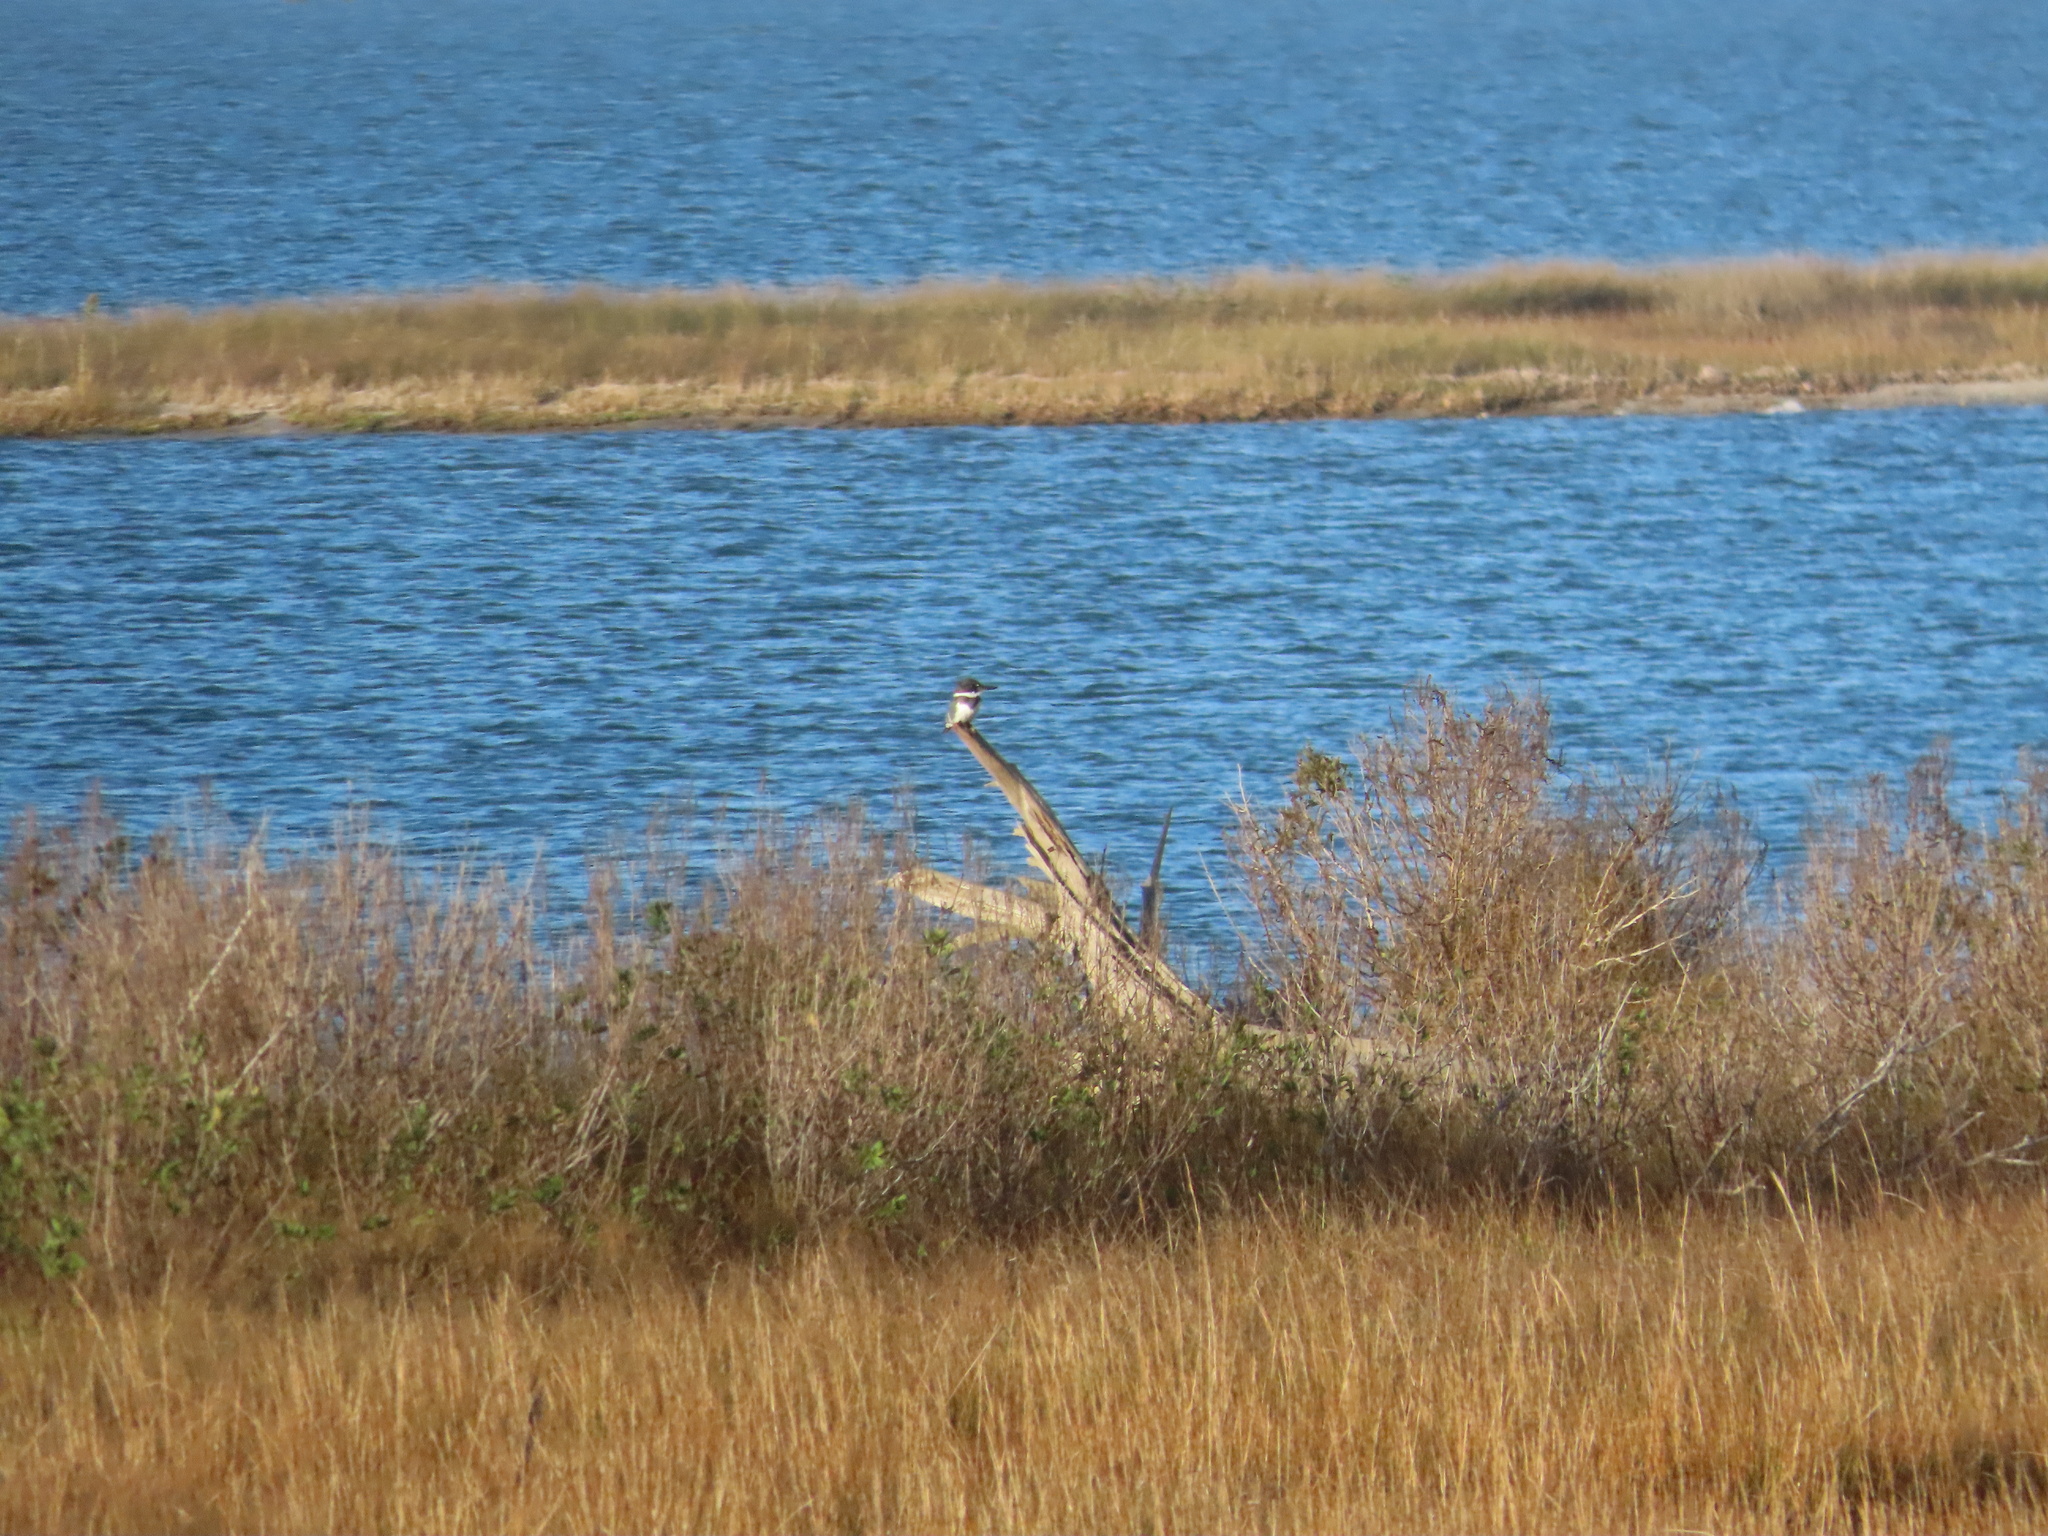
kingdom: Animalia
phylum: Chordata
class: Aves
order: Coraciiformes
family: Alcedinidae
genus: Megaceryle
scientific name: Megaceryle alcyon
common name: Belted kingfisher
